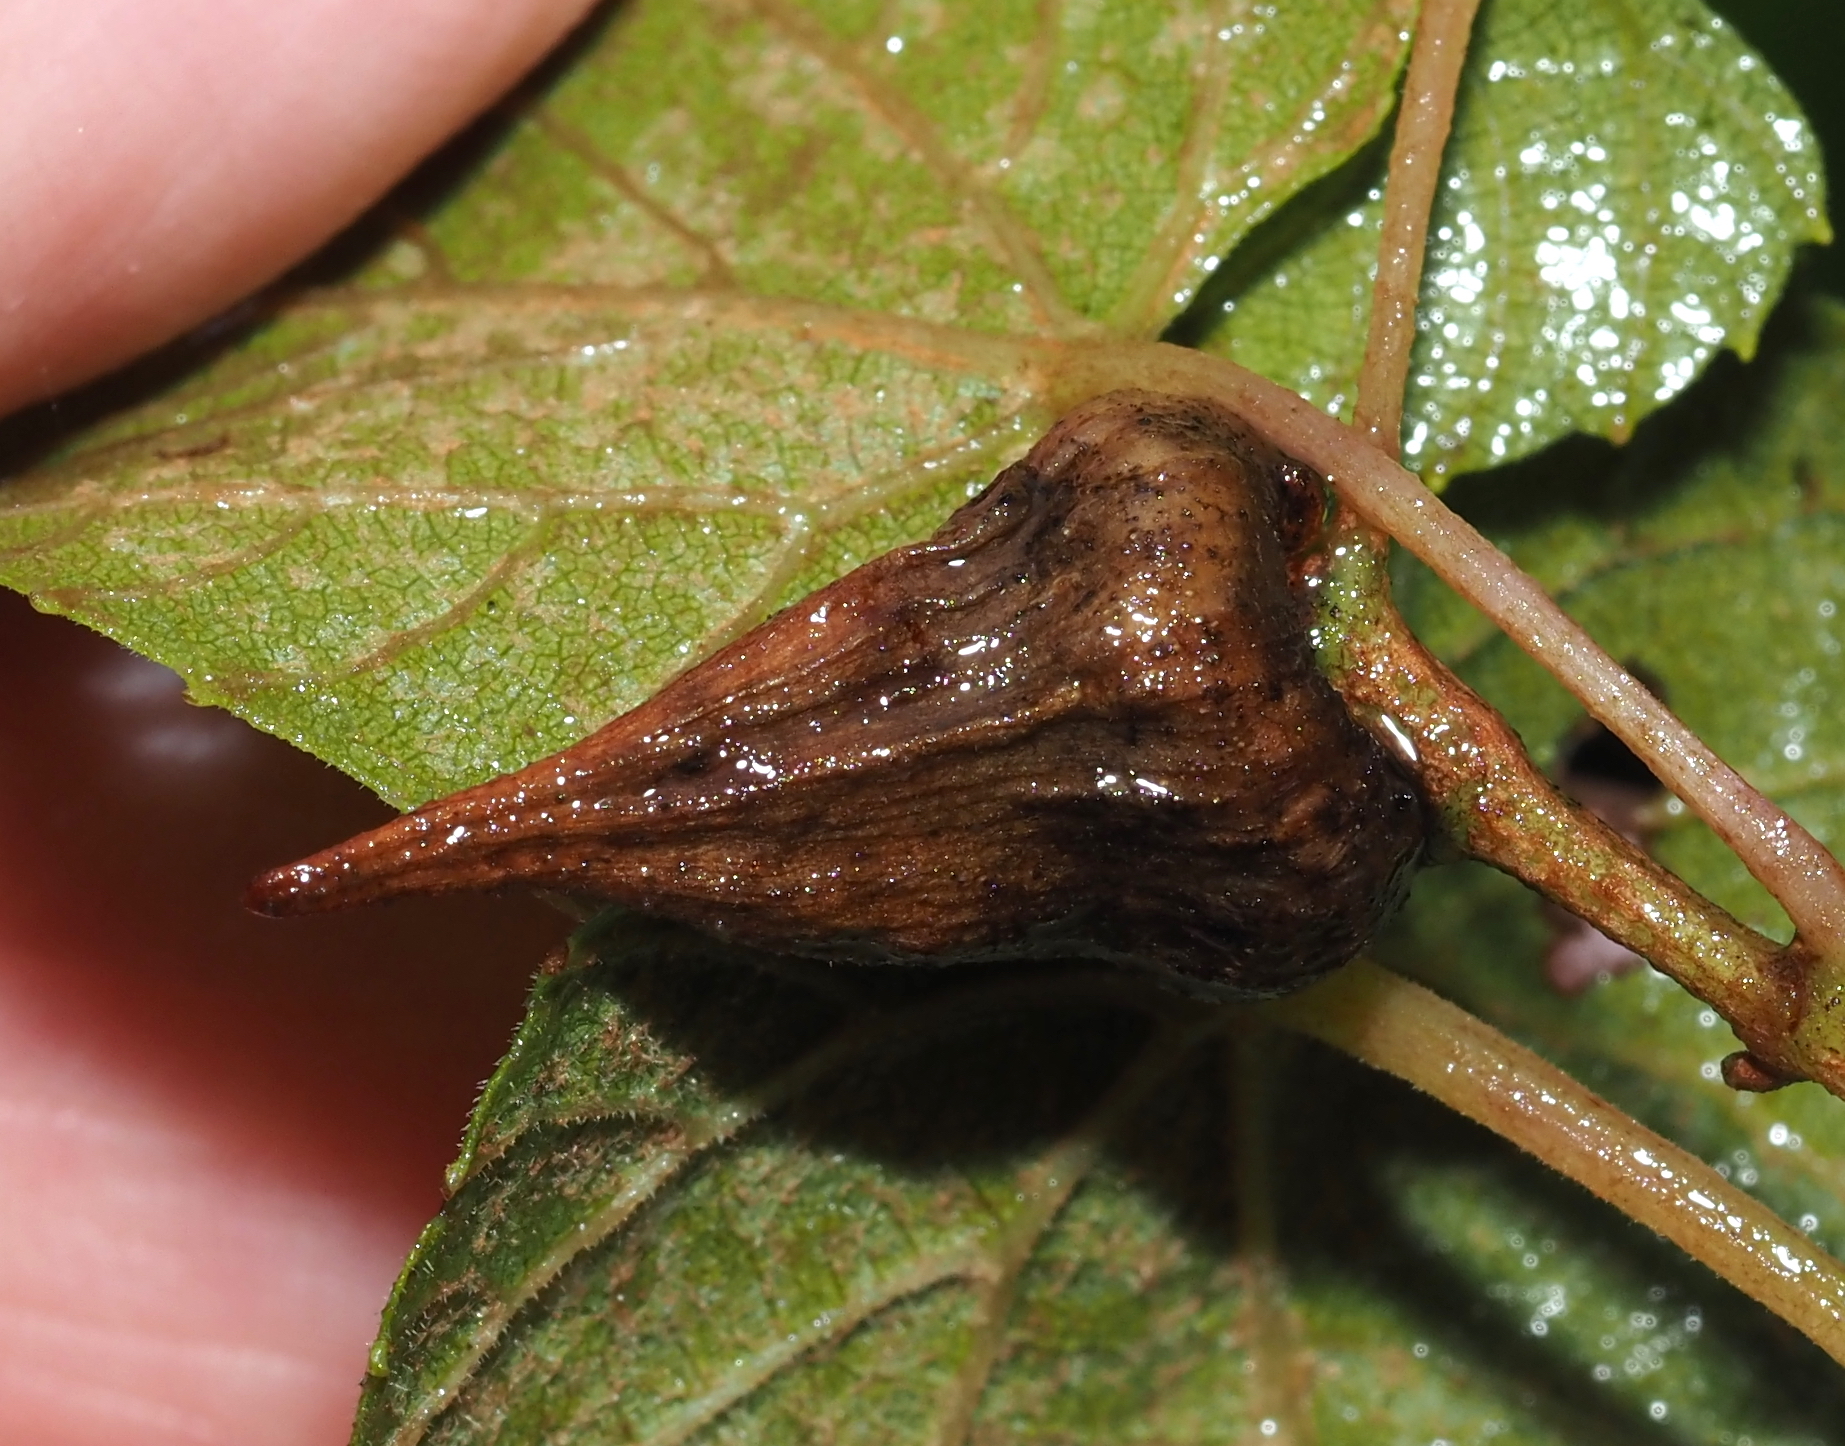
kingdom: Animalia
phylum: Arthropoda
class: Insecta
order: Diptera
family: Cecidomyiidae
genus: Ampelomyia
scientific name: Ampelomyia vitiscoryloides
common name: Grape filbert gall
